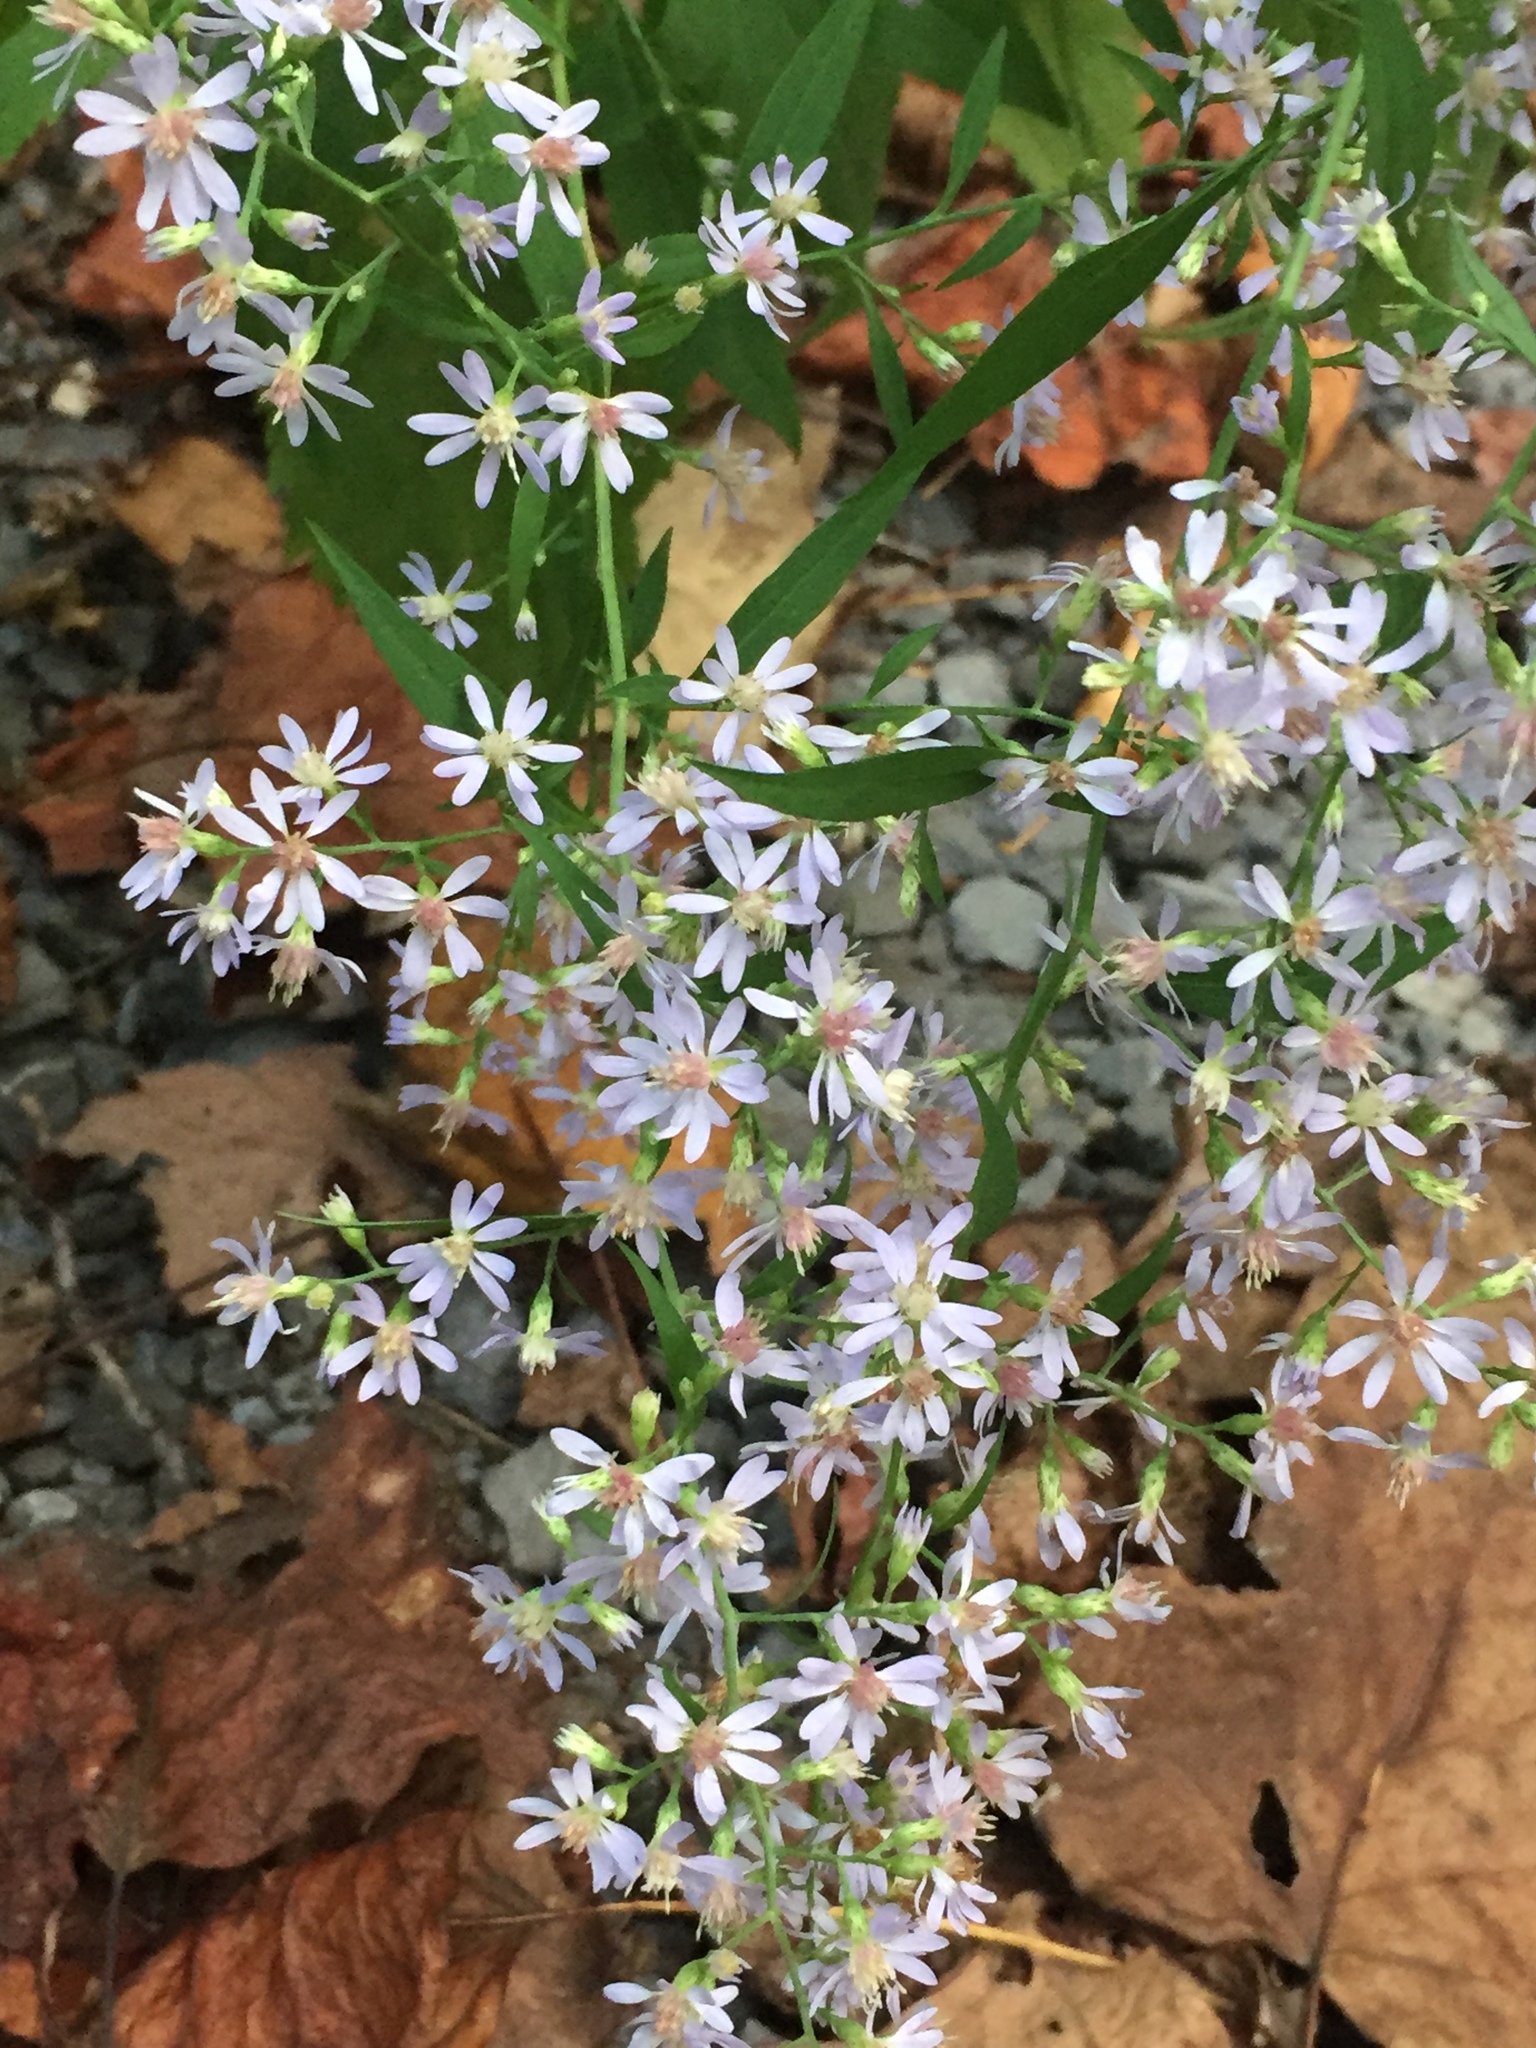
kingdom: Plantae
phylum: Tracheophyta
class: Magnoliopsida
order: Asterales
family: Asteraceae
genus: Symphyotrichum
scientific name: Symphyotrichum cordifolium
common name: Beeweed
